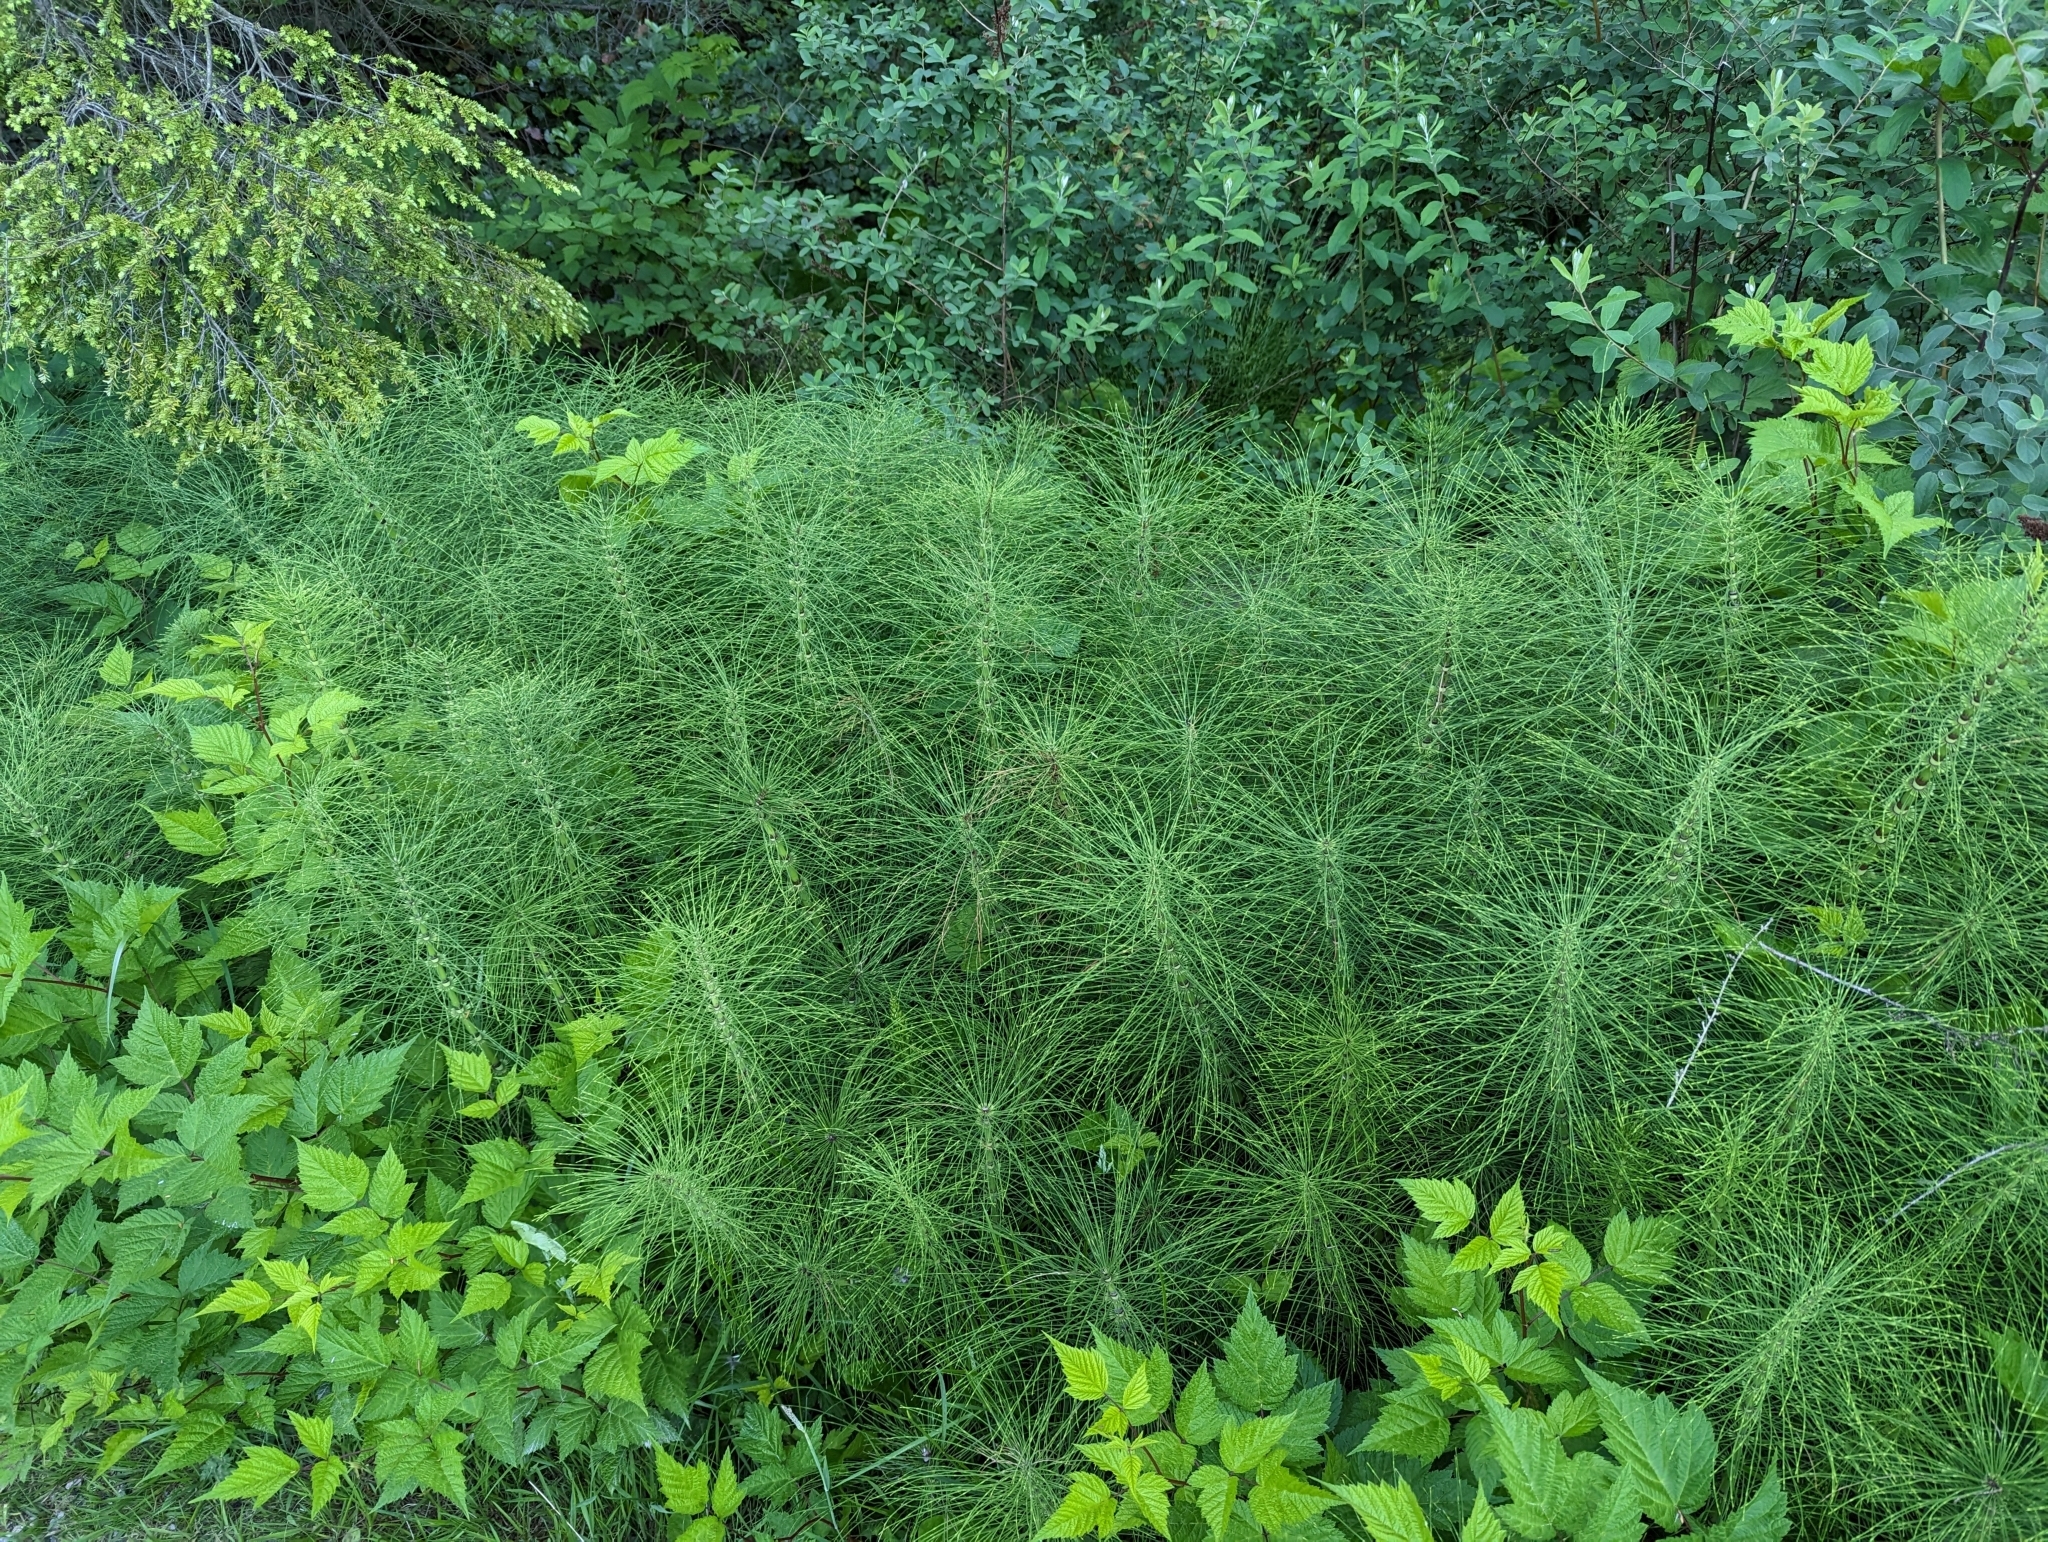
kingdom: Plantae
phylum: Tracheophyta
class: Polypodiopsida
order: Equisetales
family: Equisetaceae
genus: Equisetum
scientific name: Equisetum braunii
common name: Braun's horsetail
